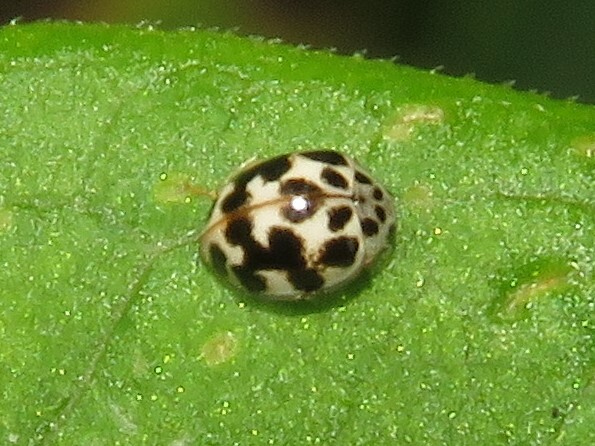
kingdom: Animalia
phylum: Arthropoda
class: Insecta
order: Coleoptera
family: Coccinellidae
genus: Psyllobora
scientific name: Psyllobora vigintimaculata
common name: Ladybird beetle
